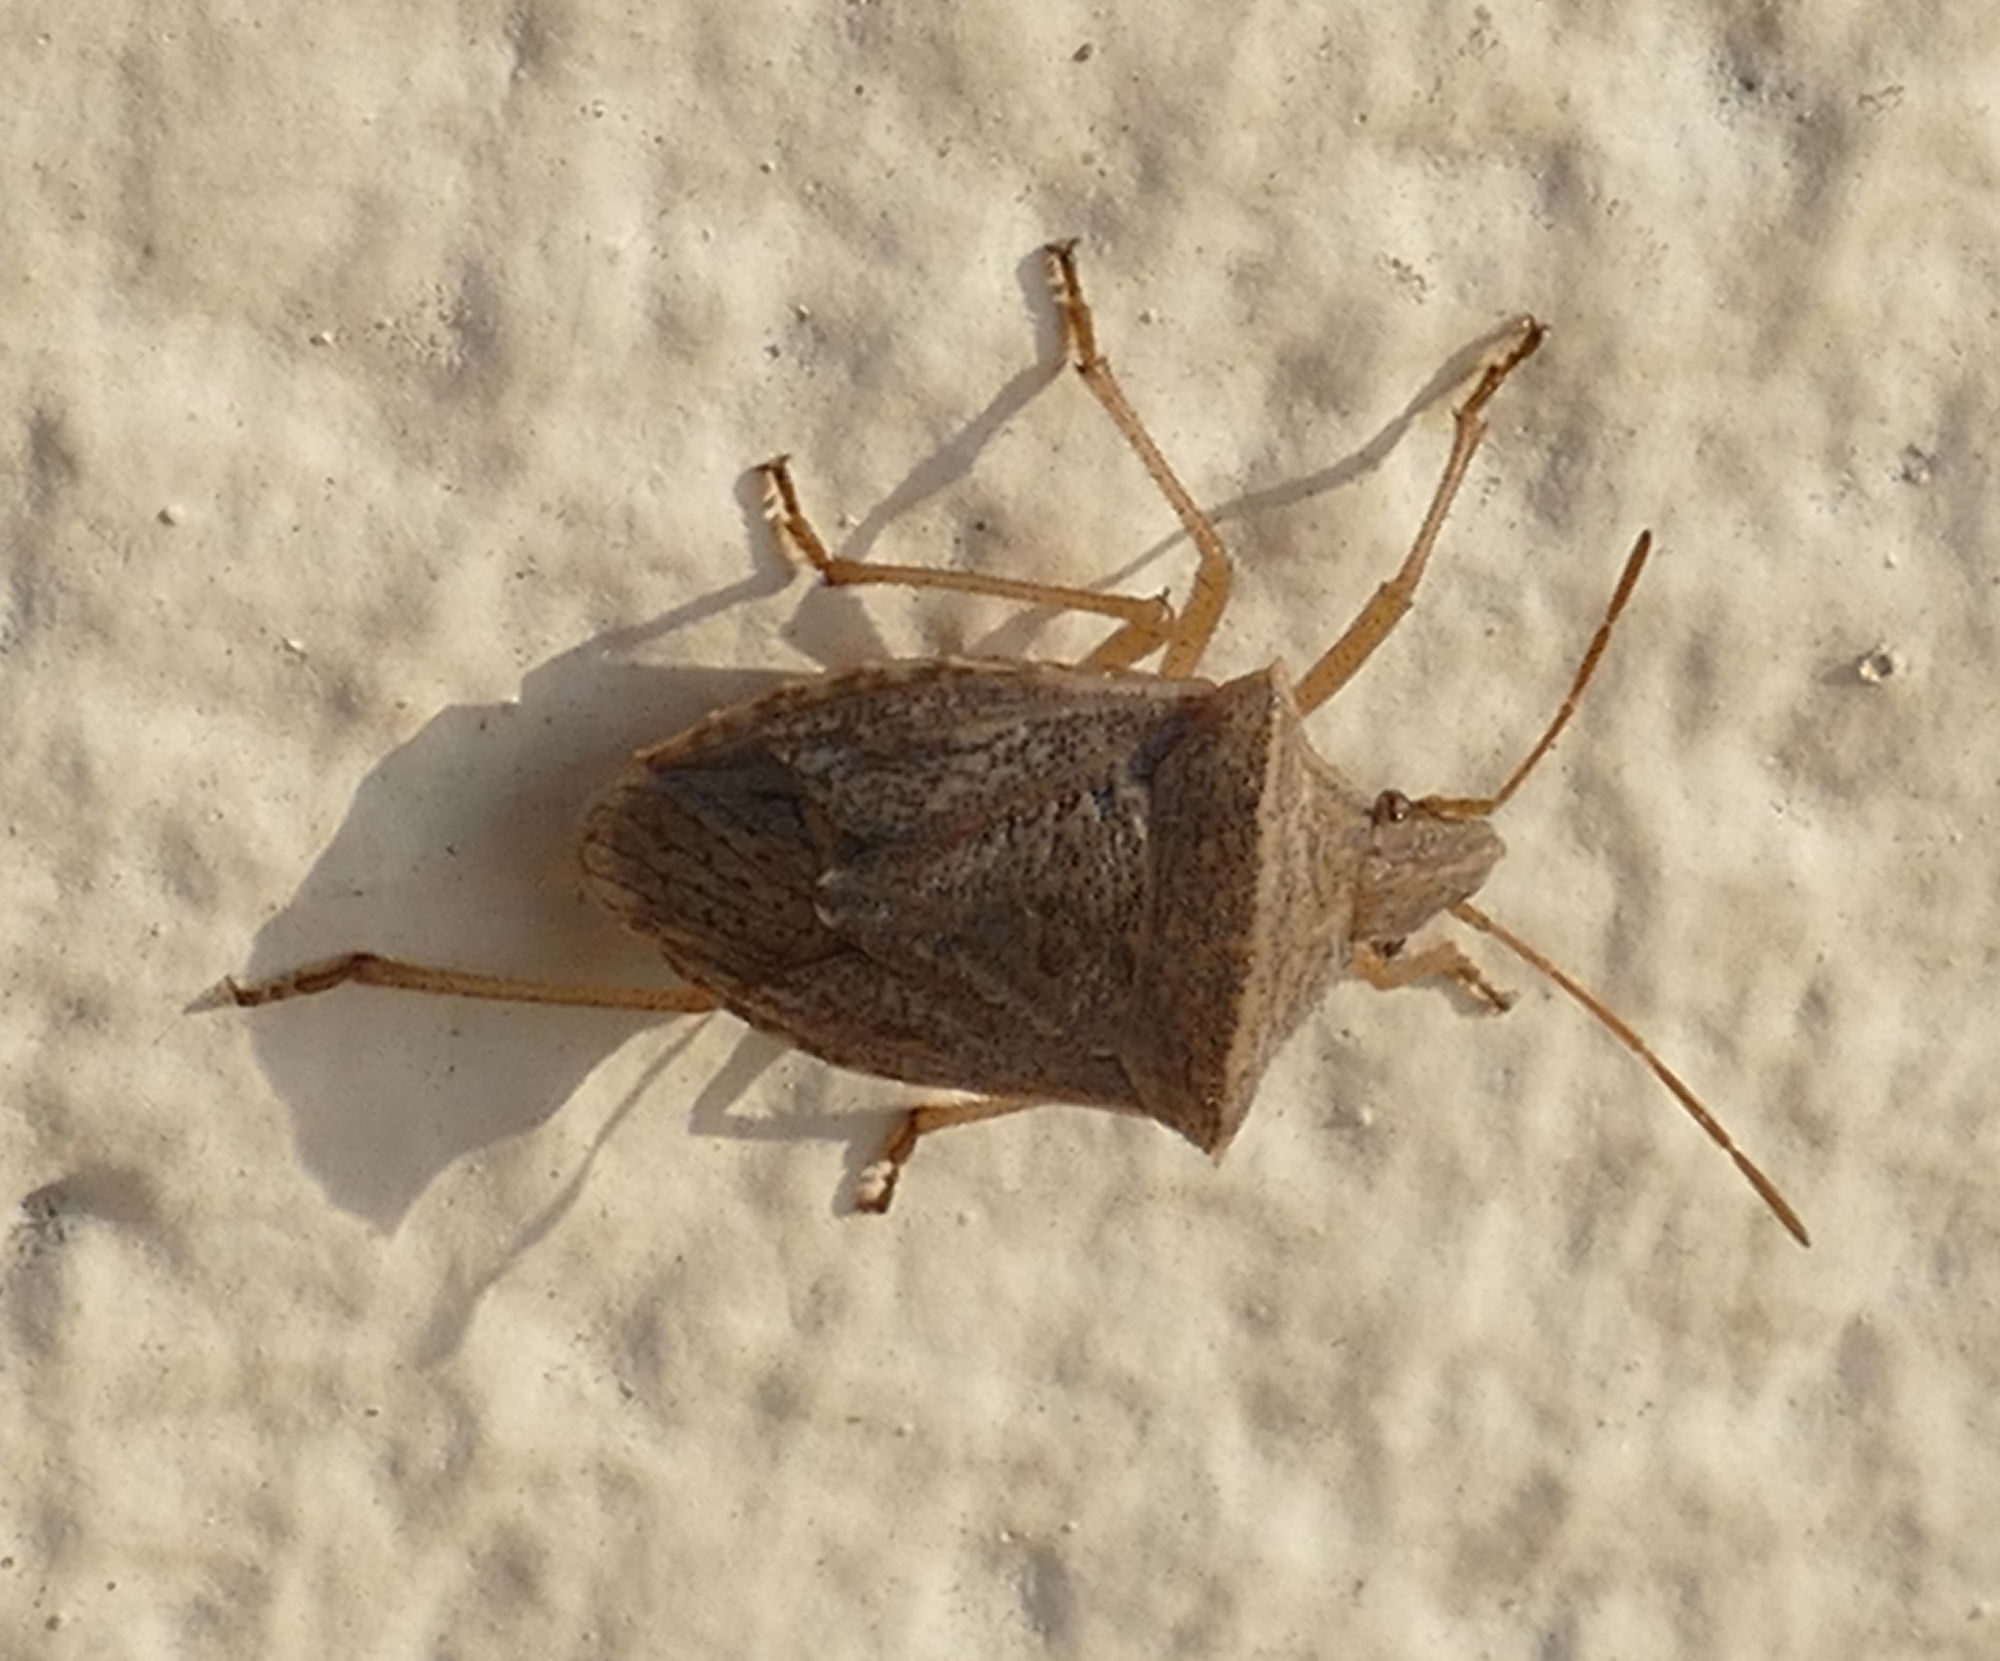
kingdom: Animalia
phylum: Arthropoda
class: Insecta
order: Hemiptera
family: Pentatomidae
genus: Euschistus
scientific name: Euschistus crassus
